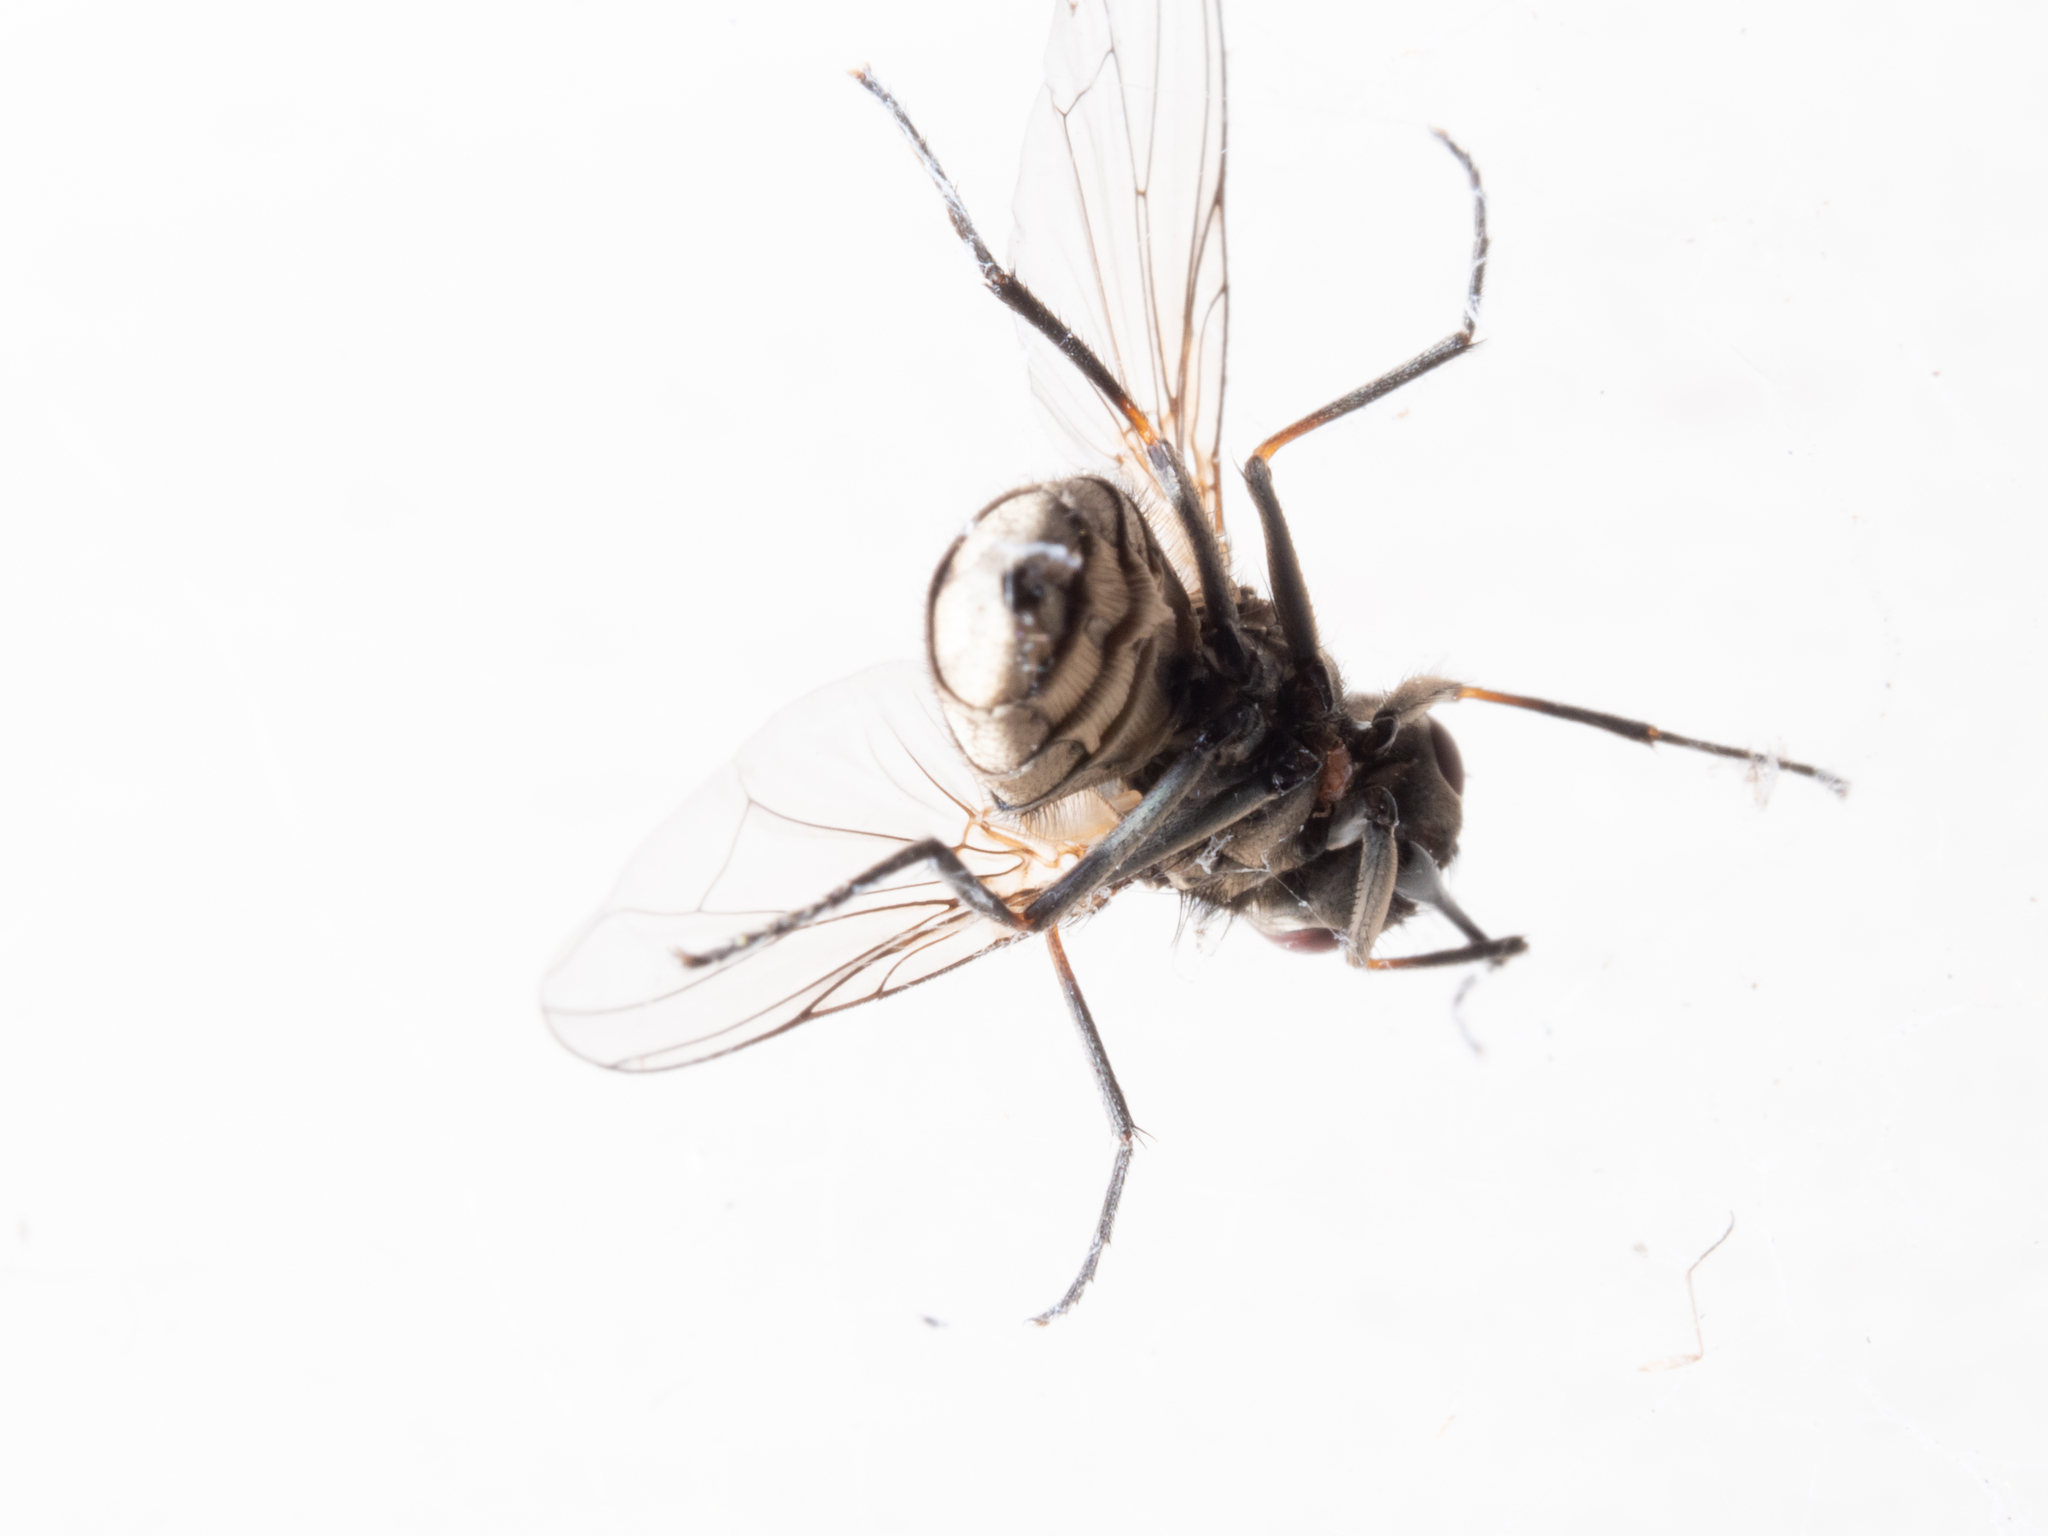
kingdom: Animalia
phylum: Arthropoda
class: Insecta
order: Diptera
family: Muscidae
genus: Stomoxys
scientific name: Stomoxys calcitrans
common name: Stable fly
